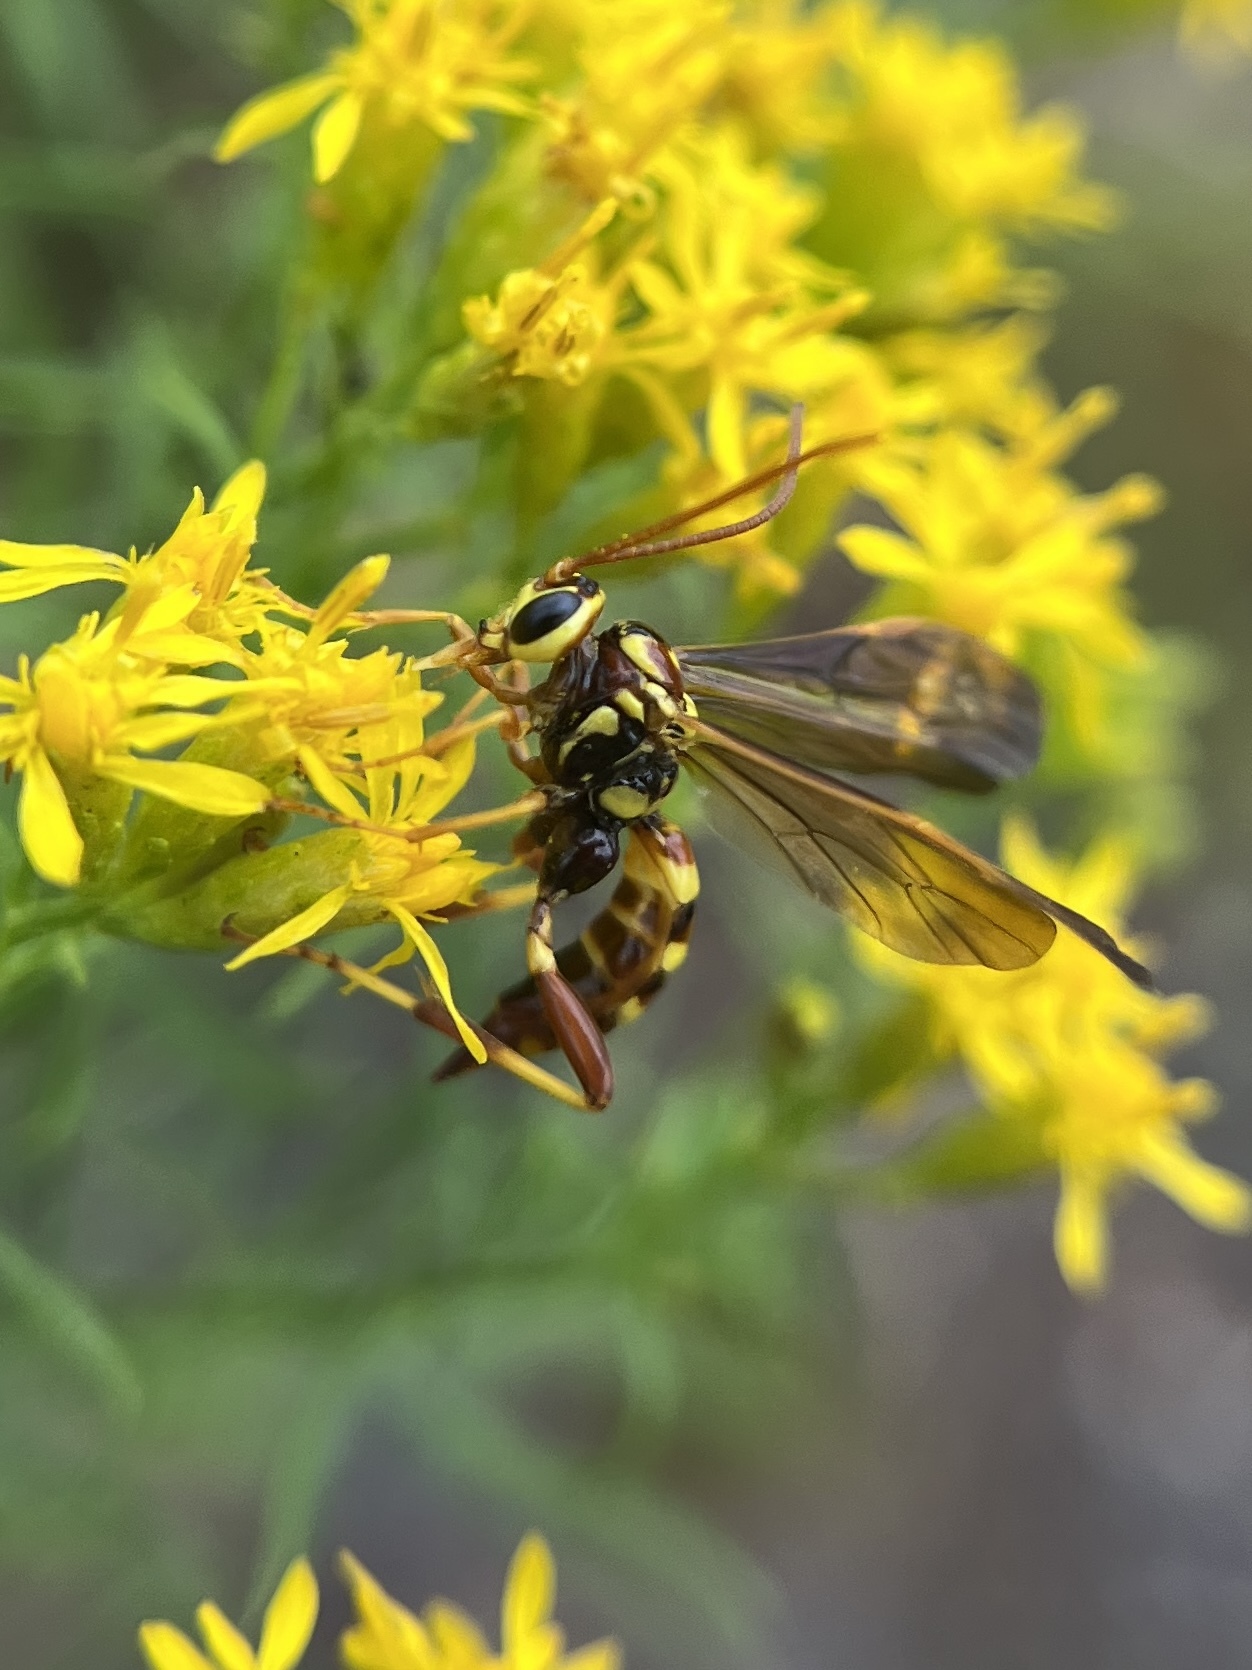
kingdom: Animalia
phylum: Arthropoda
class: Insecta
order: Hymenoptera
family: Ichneumonidae
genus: Ceratogastra
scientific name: Ceratogastra ornata
